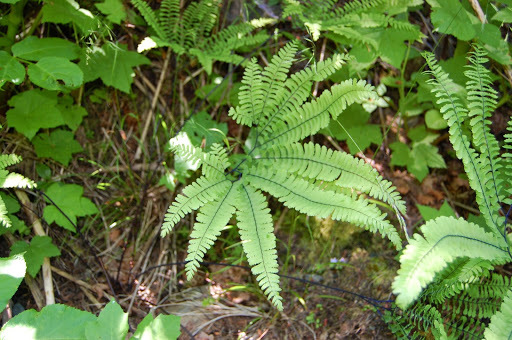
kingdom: Plantae
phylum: Tracheophyta
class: Polypodiopsida
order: Polypodiales
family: Pteridaceae
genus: Adiantum
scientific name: Adiantum aleuticum
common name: Aleutian maidenhair fern
